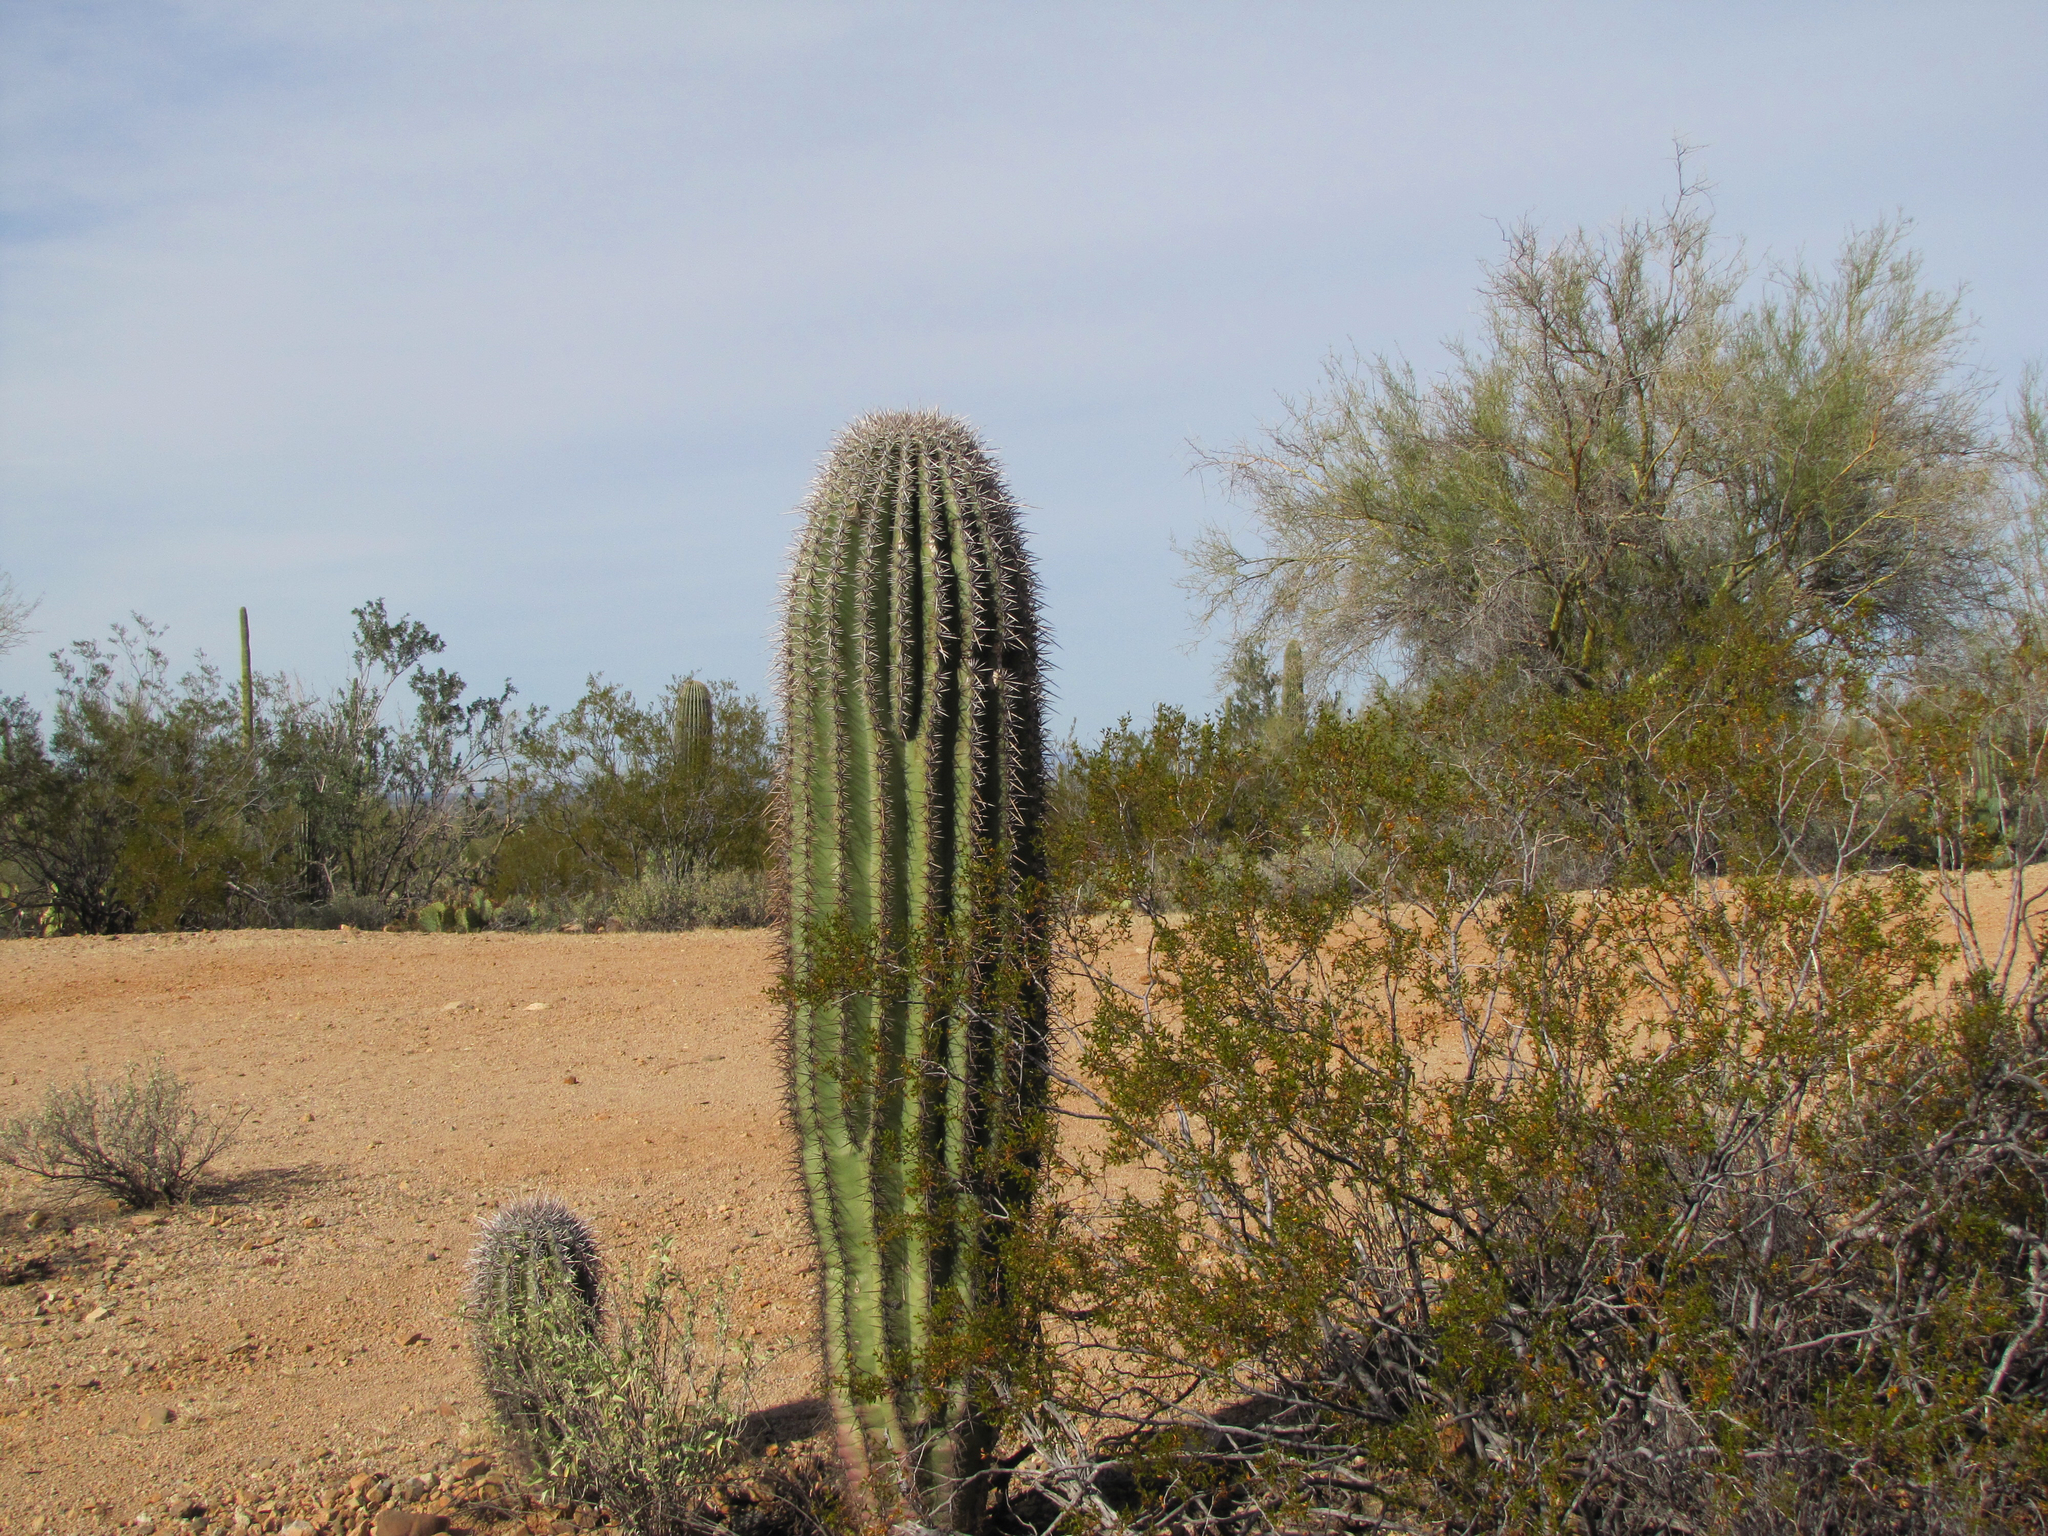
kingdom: Plantae
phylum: Tracheophyta
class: Magnoliopsida
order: Caryophyllales
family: Cactaceae
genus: Carnegiea
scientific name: Carnegiea gigantea
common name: Saguaro
